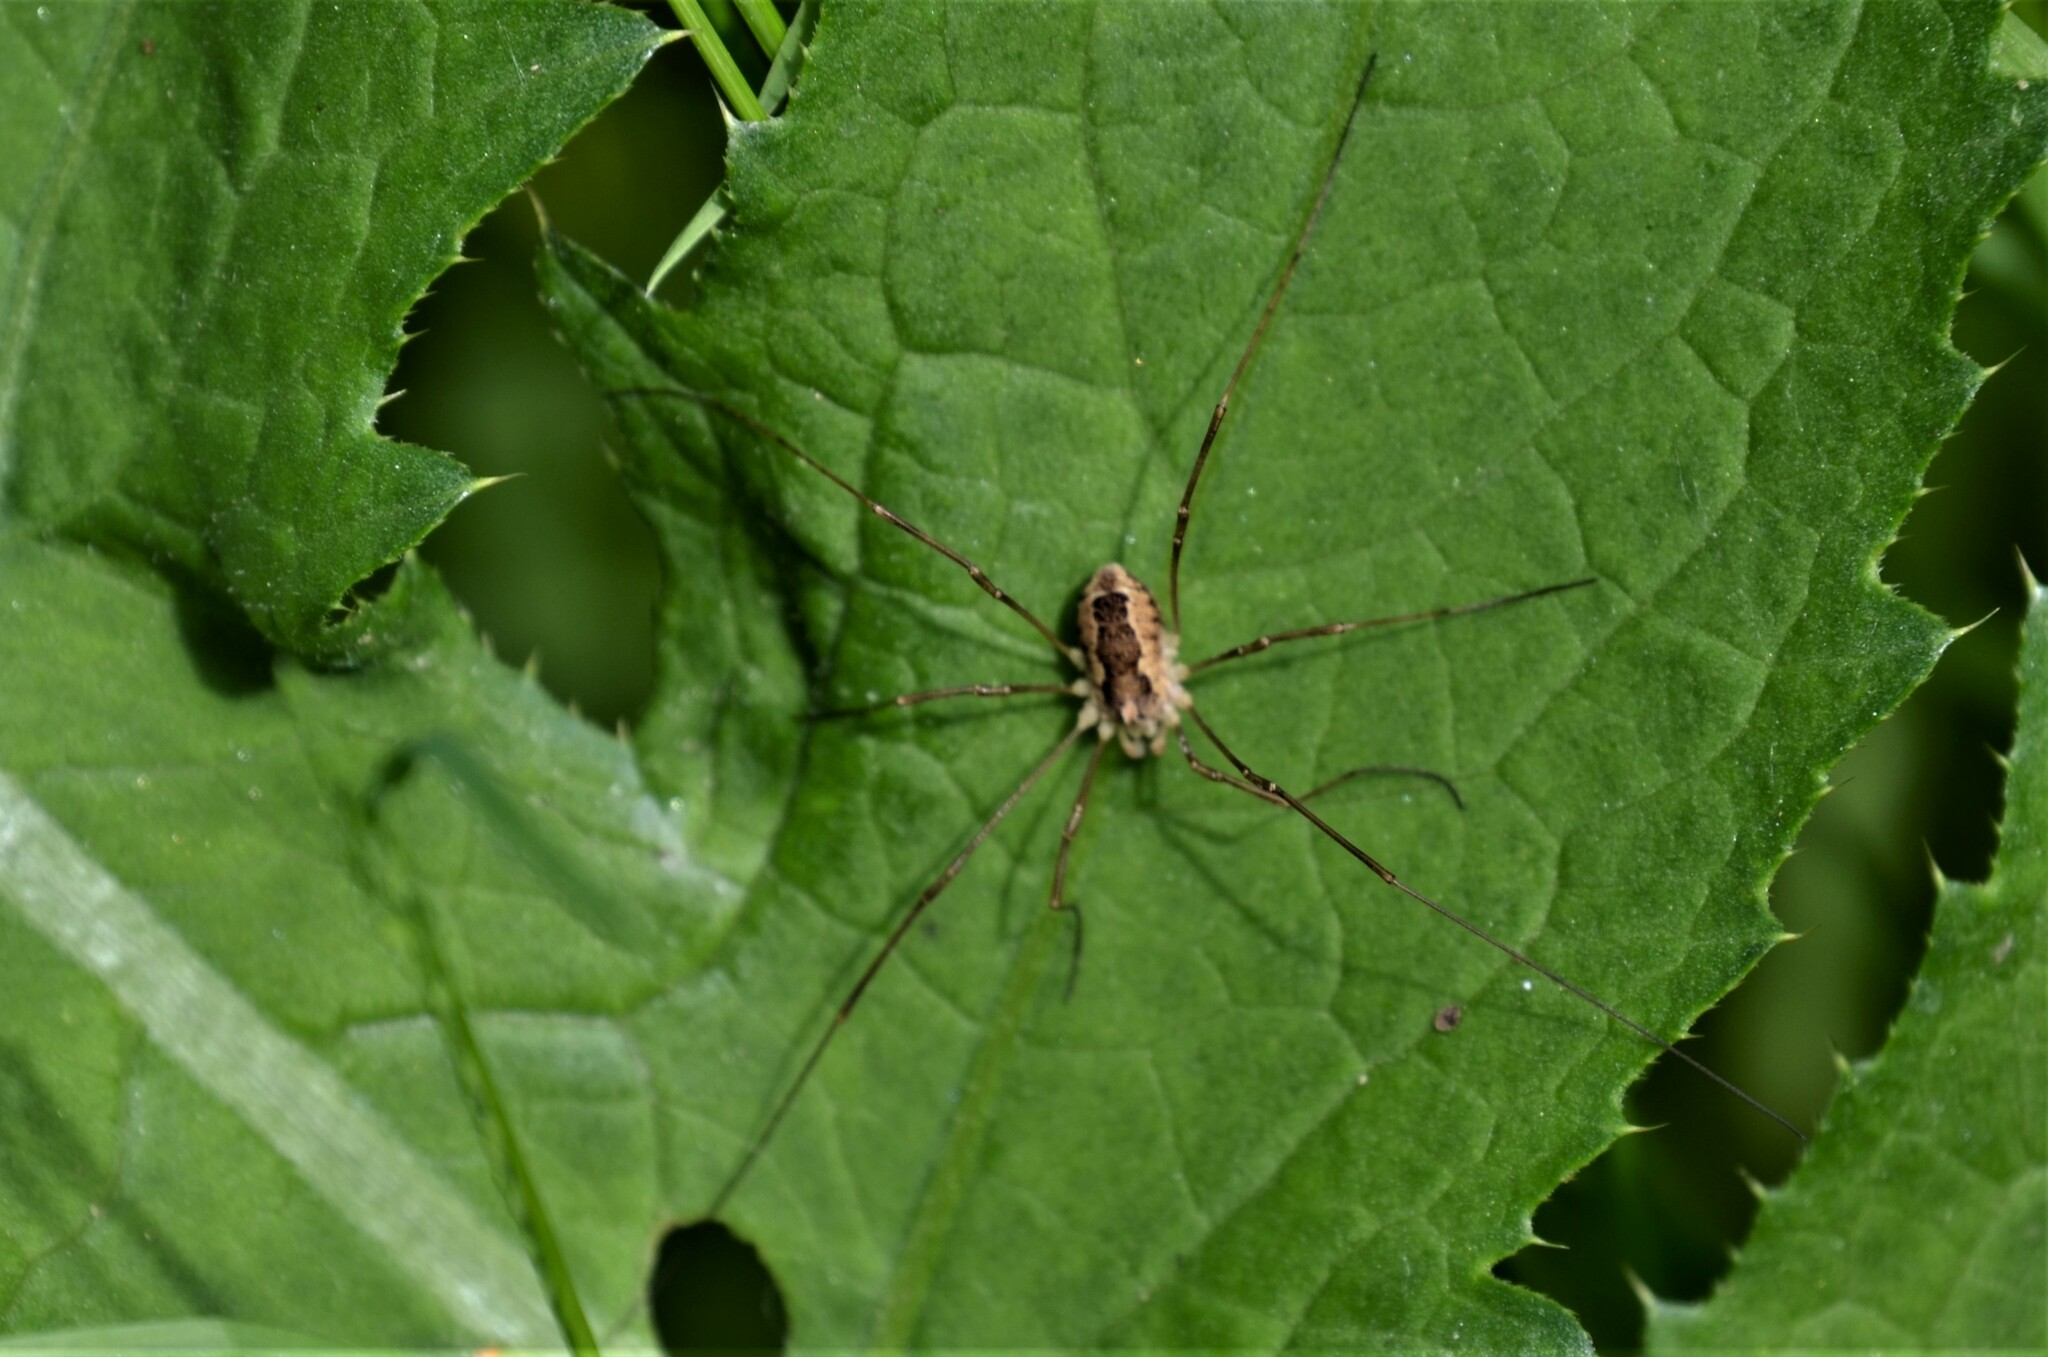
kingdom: Animalia
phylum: Arthropoda
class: Arachnida
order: Opiliones
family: Phalangiidae
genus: Rilaena
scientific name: Rilaena triangularis
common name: Spring harvestman
